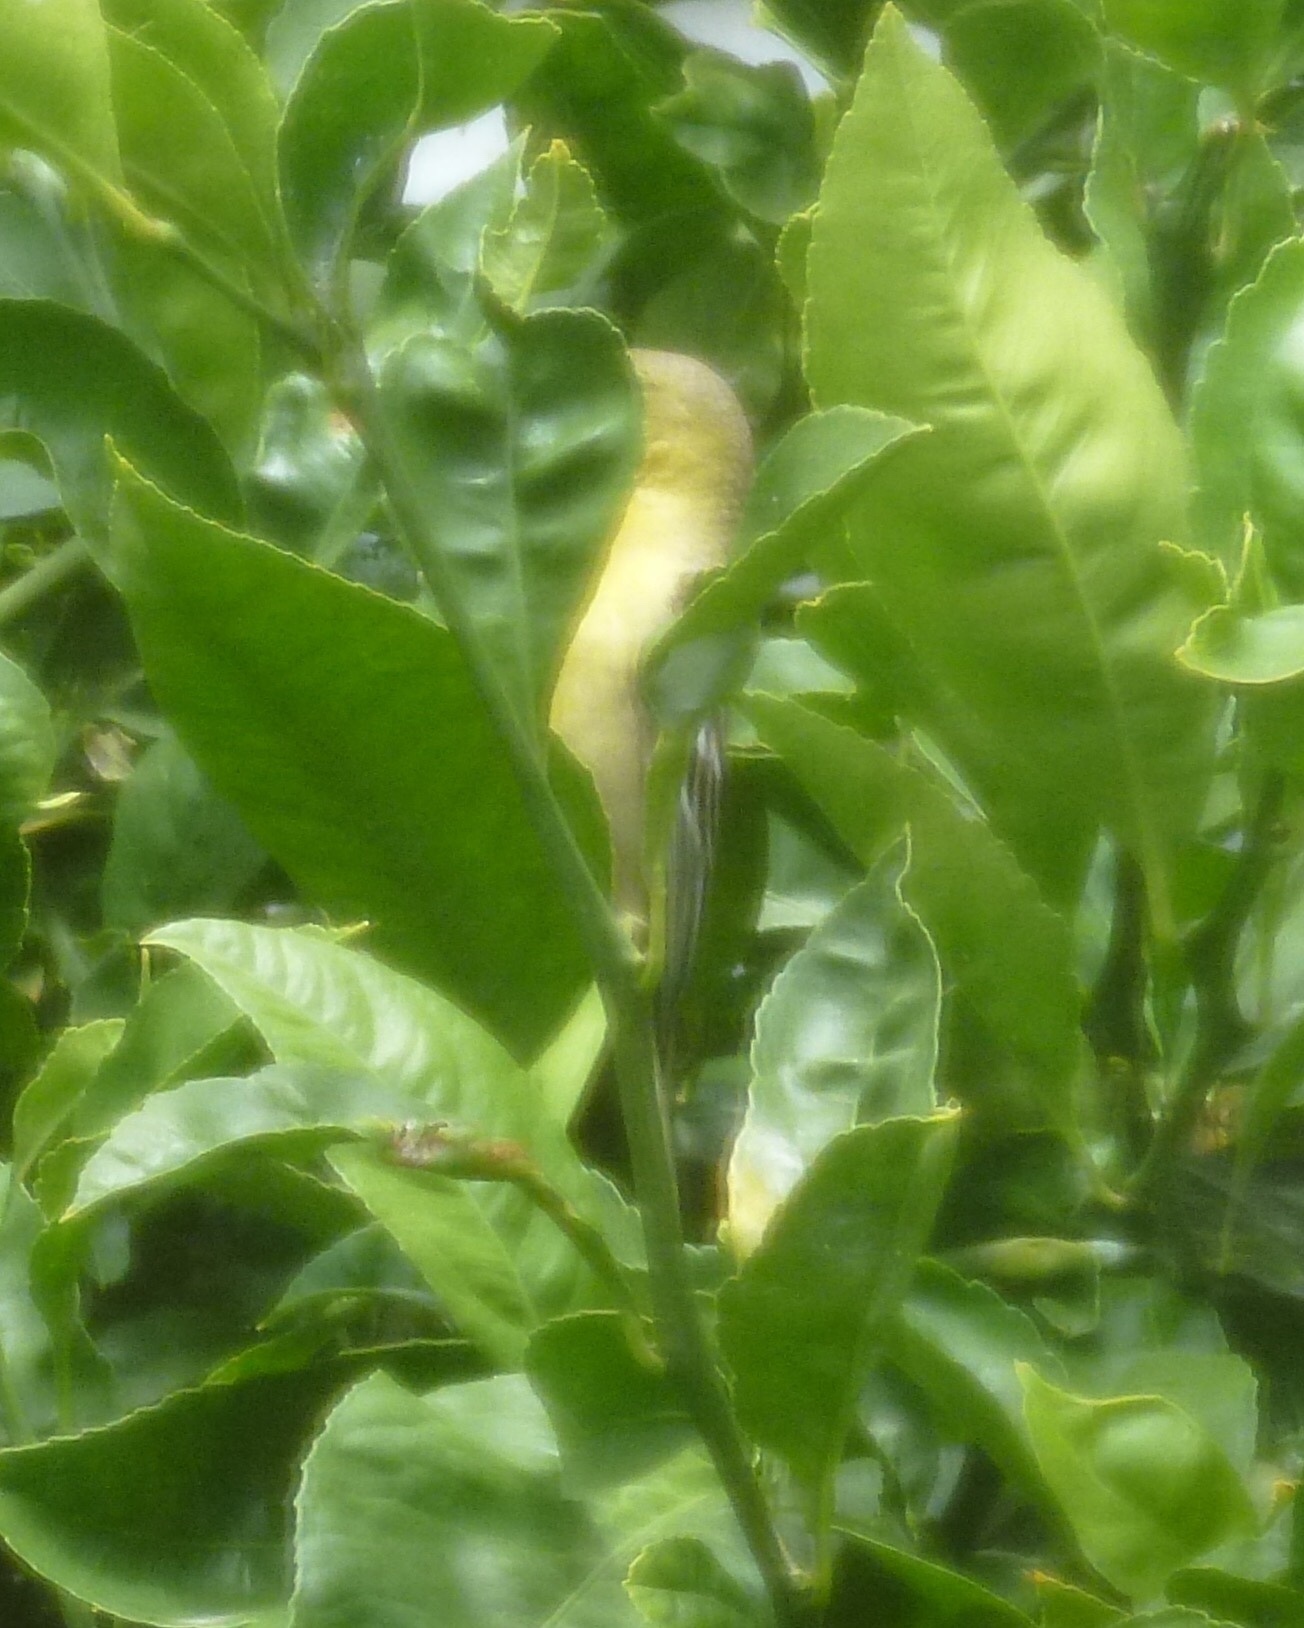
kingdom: Animalia
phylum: Chordata
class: Aves
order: Passeriformes
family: Icteridae
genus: Icterus
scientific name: Icterus cucullatus
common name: Hooded oriole
